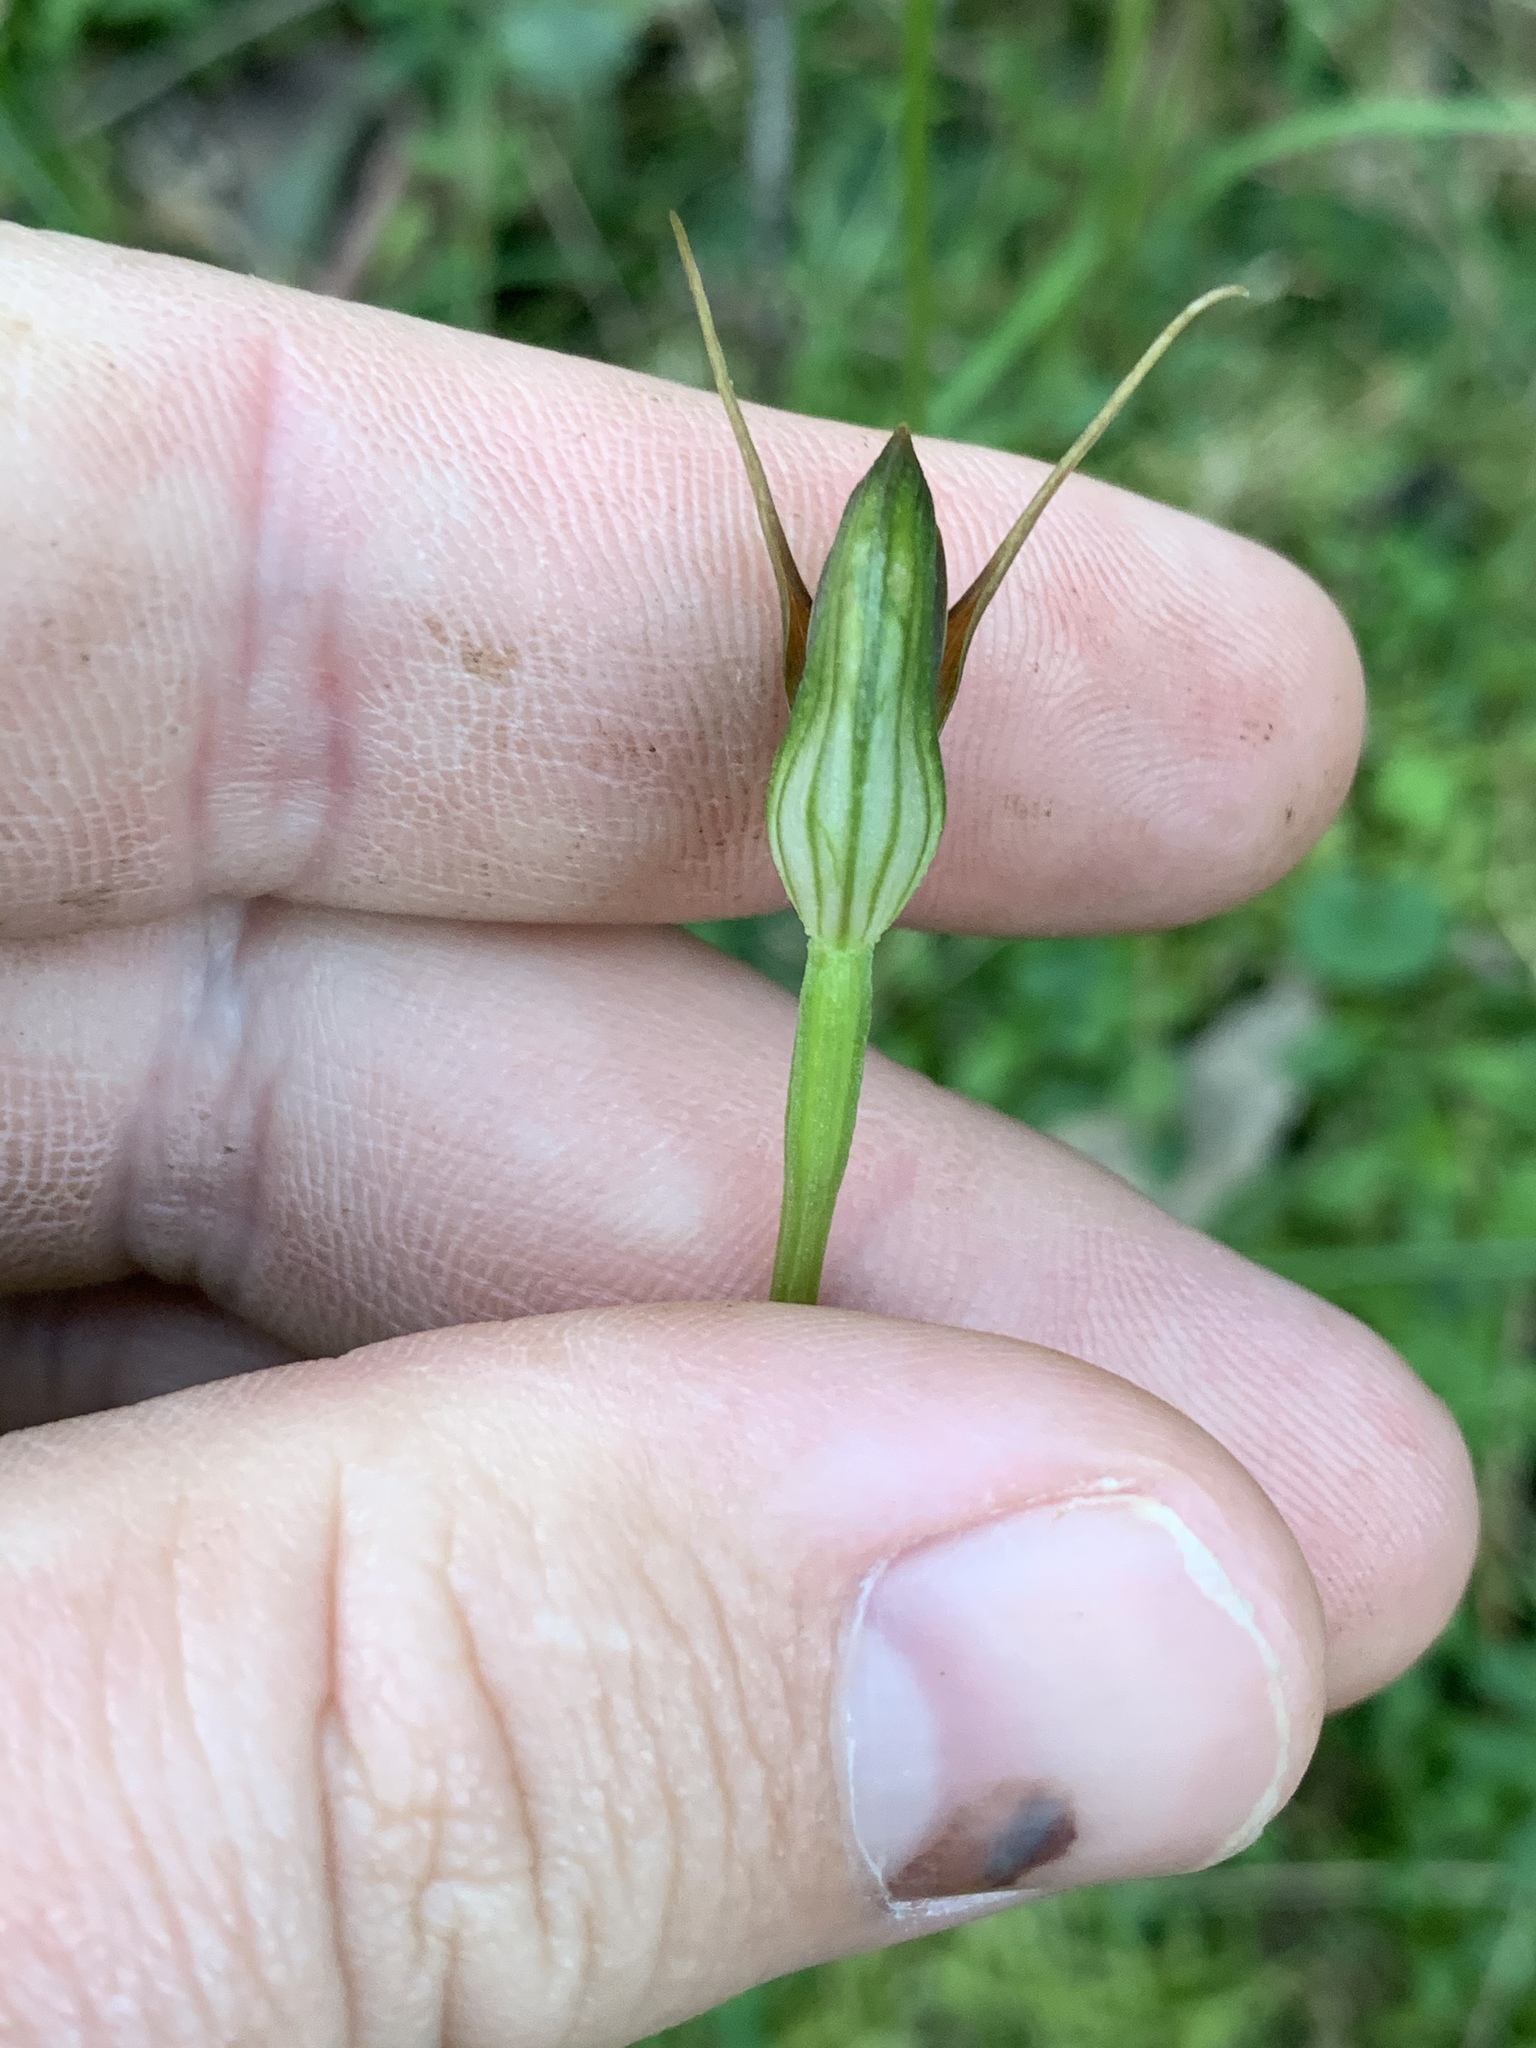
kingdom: Plantae
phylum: Tracheophyta
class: Liliopsida
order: Asparagales
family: Orchidaceae
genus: Pterostylis
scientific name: Pterostylis erecta
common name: Upright maroonhood
